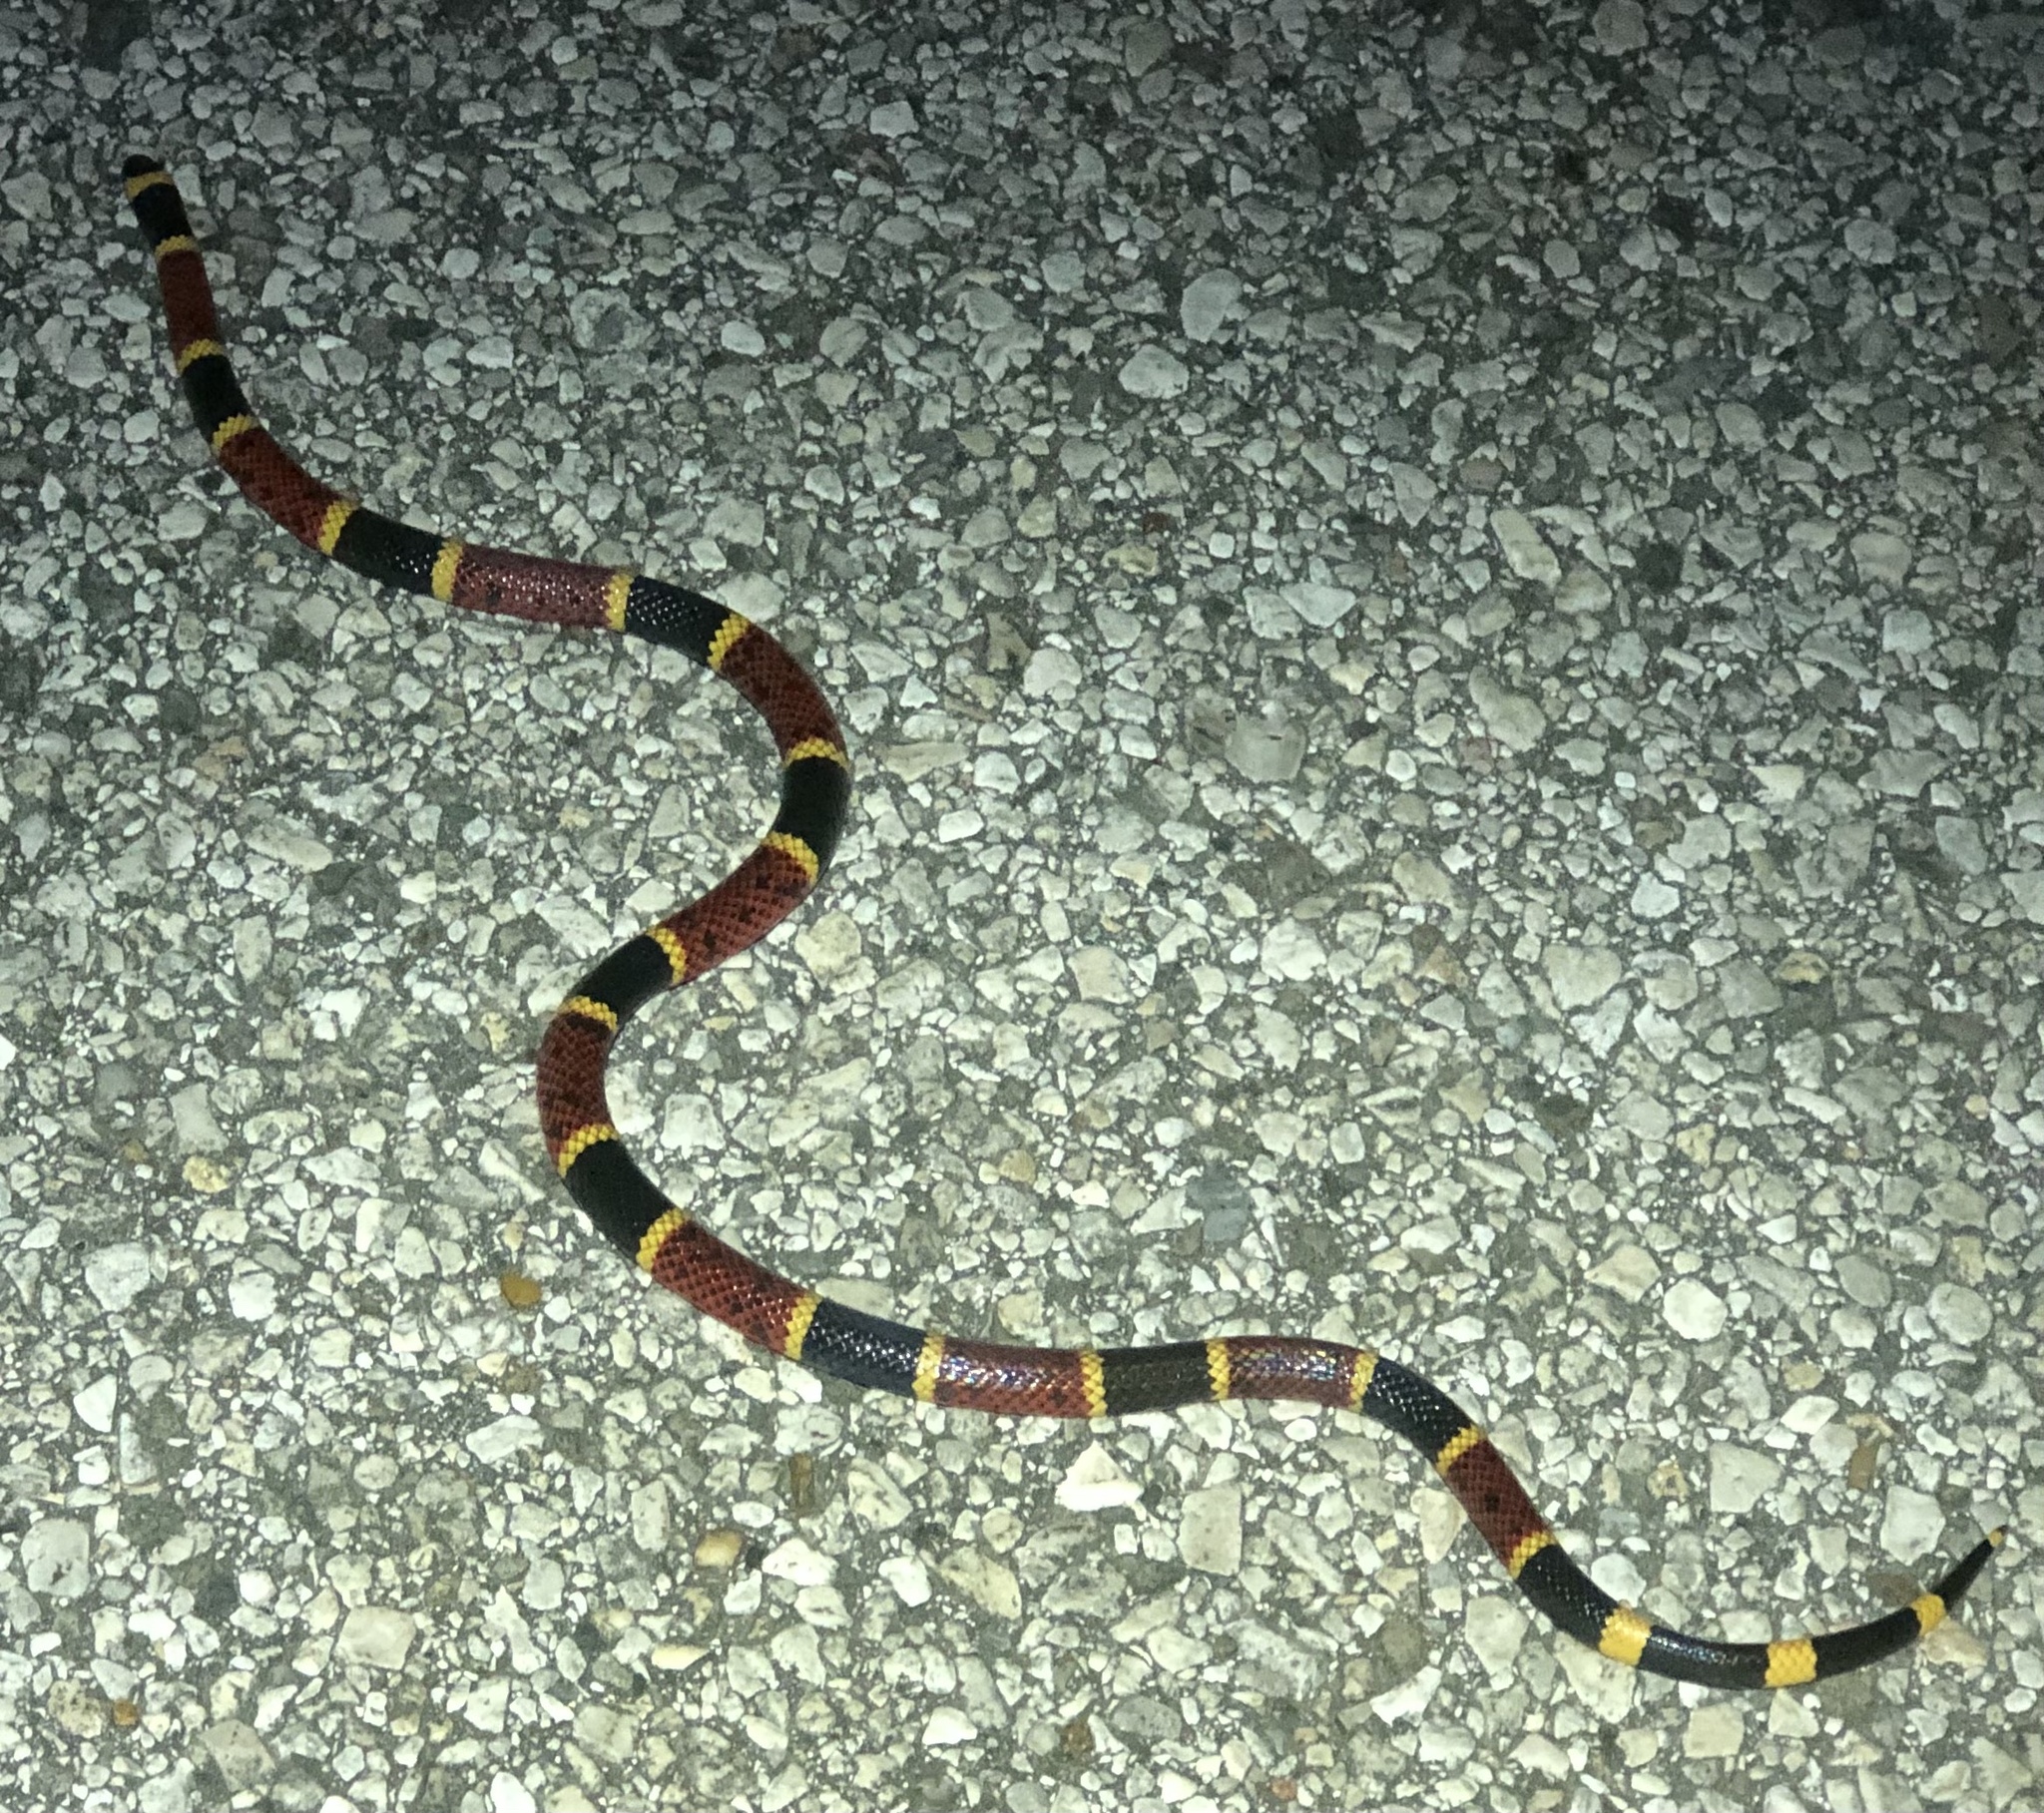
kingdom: Animalia
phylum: Chordata
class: Squamata
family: Elapidae
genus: Micrurus
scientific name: Micrurus tener
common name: Texas coral snake
